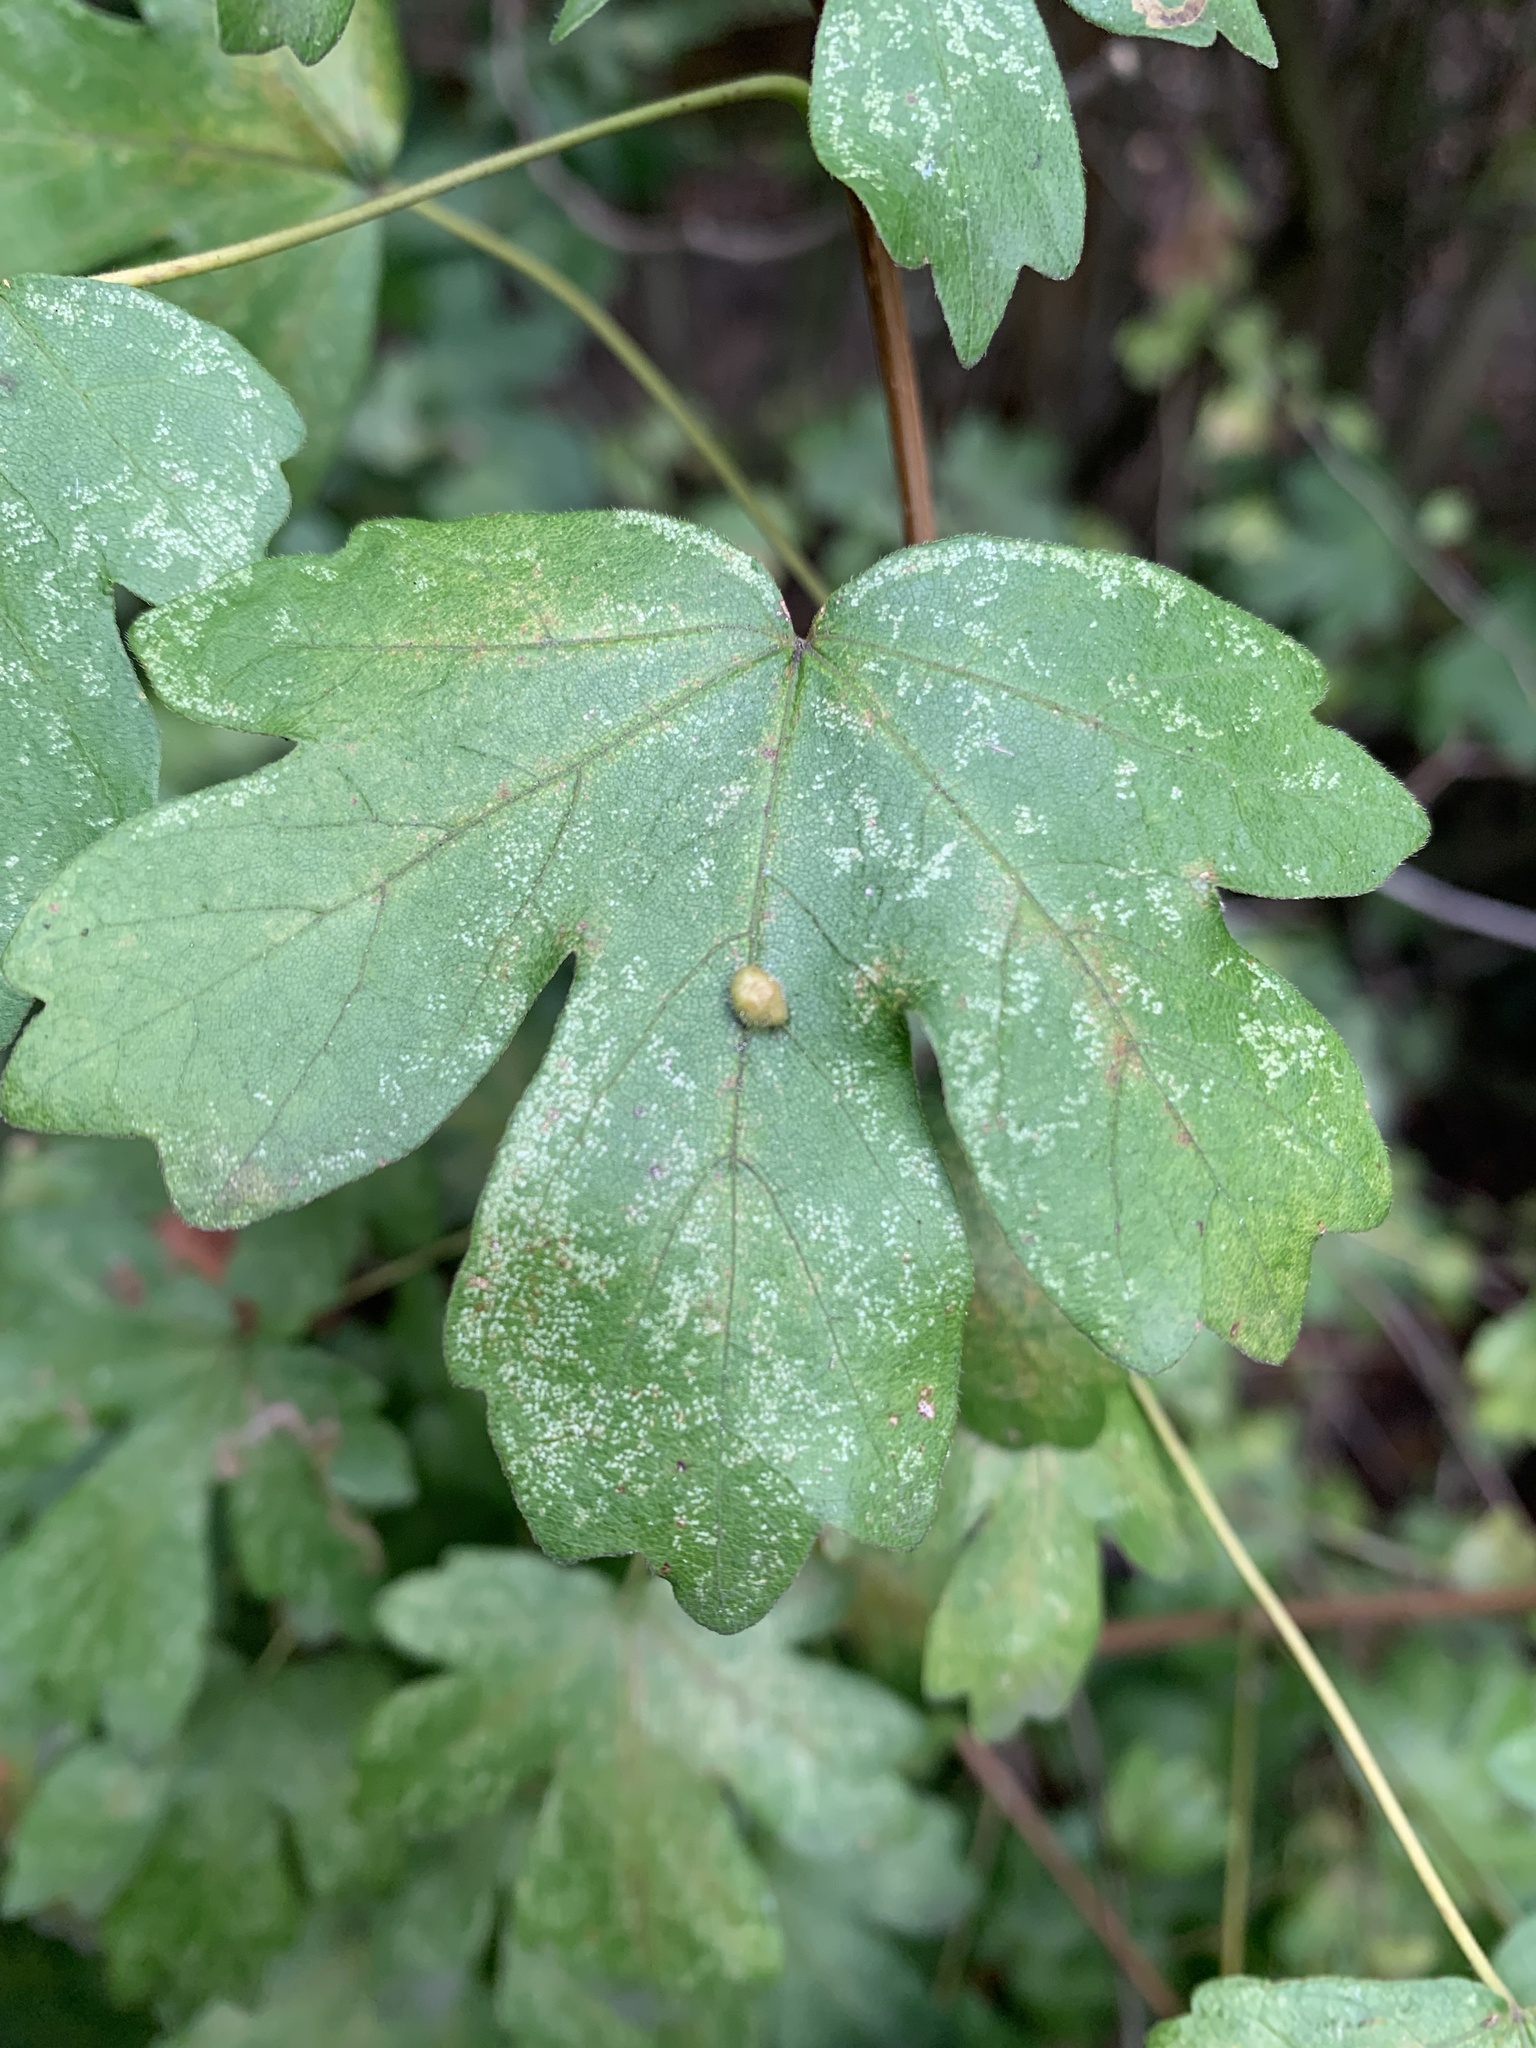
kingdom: Animalia
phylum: Arthropoda
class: Arachnida
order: Trombidiformes
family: Eriophyidae
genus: Aceria
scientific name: Aceria macrochelus
